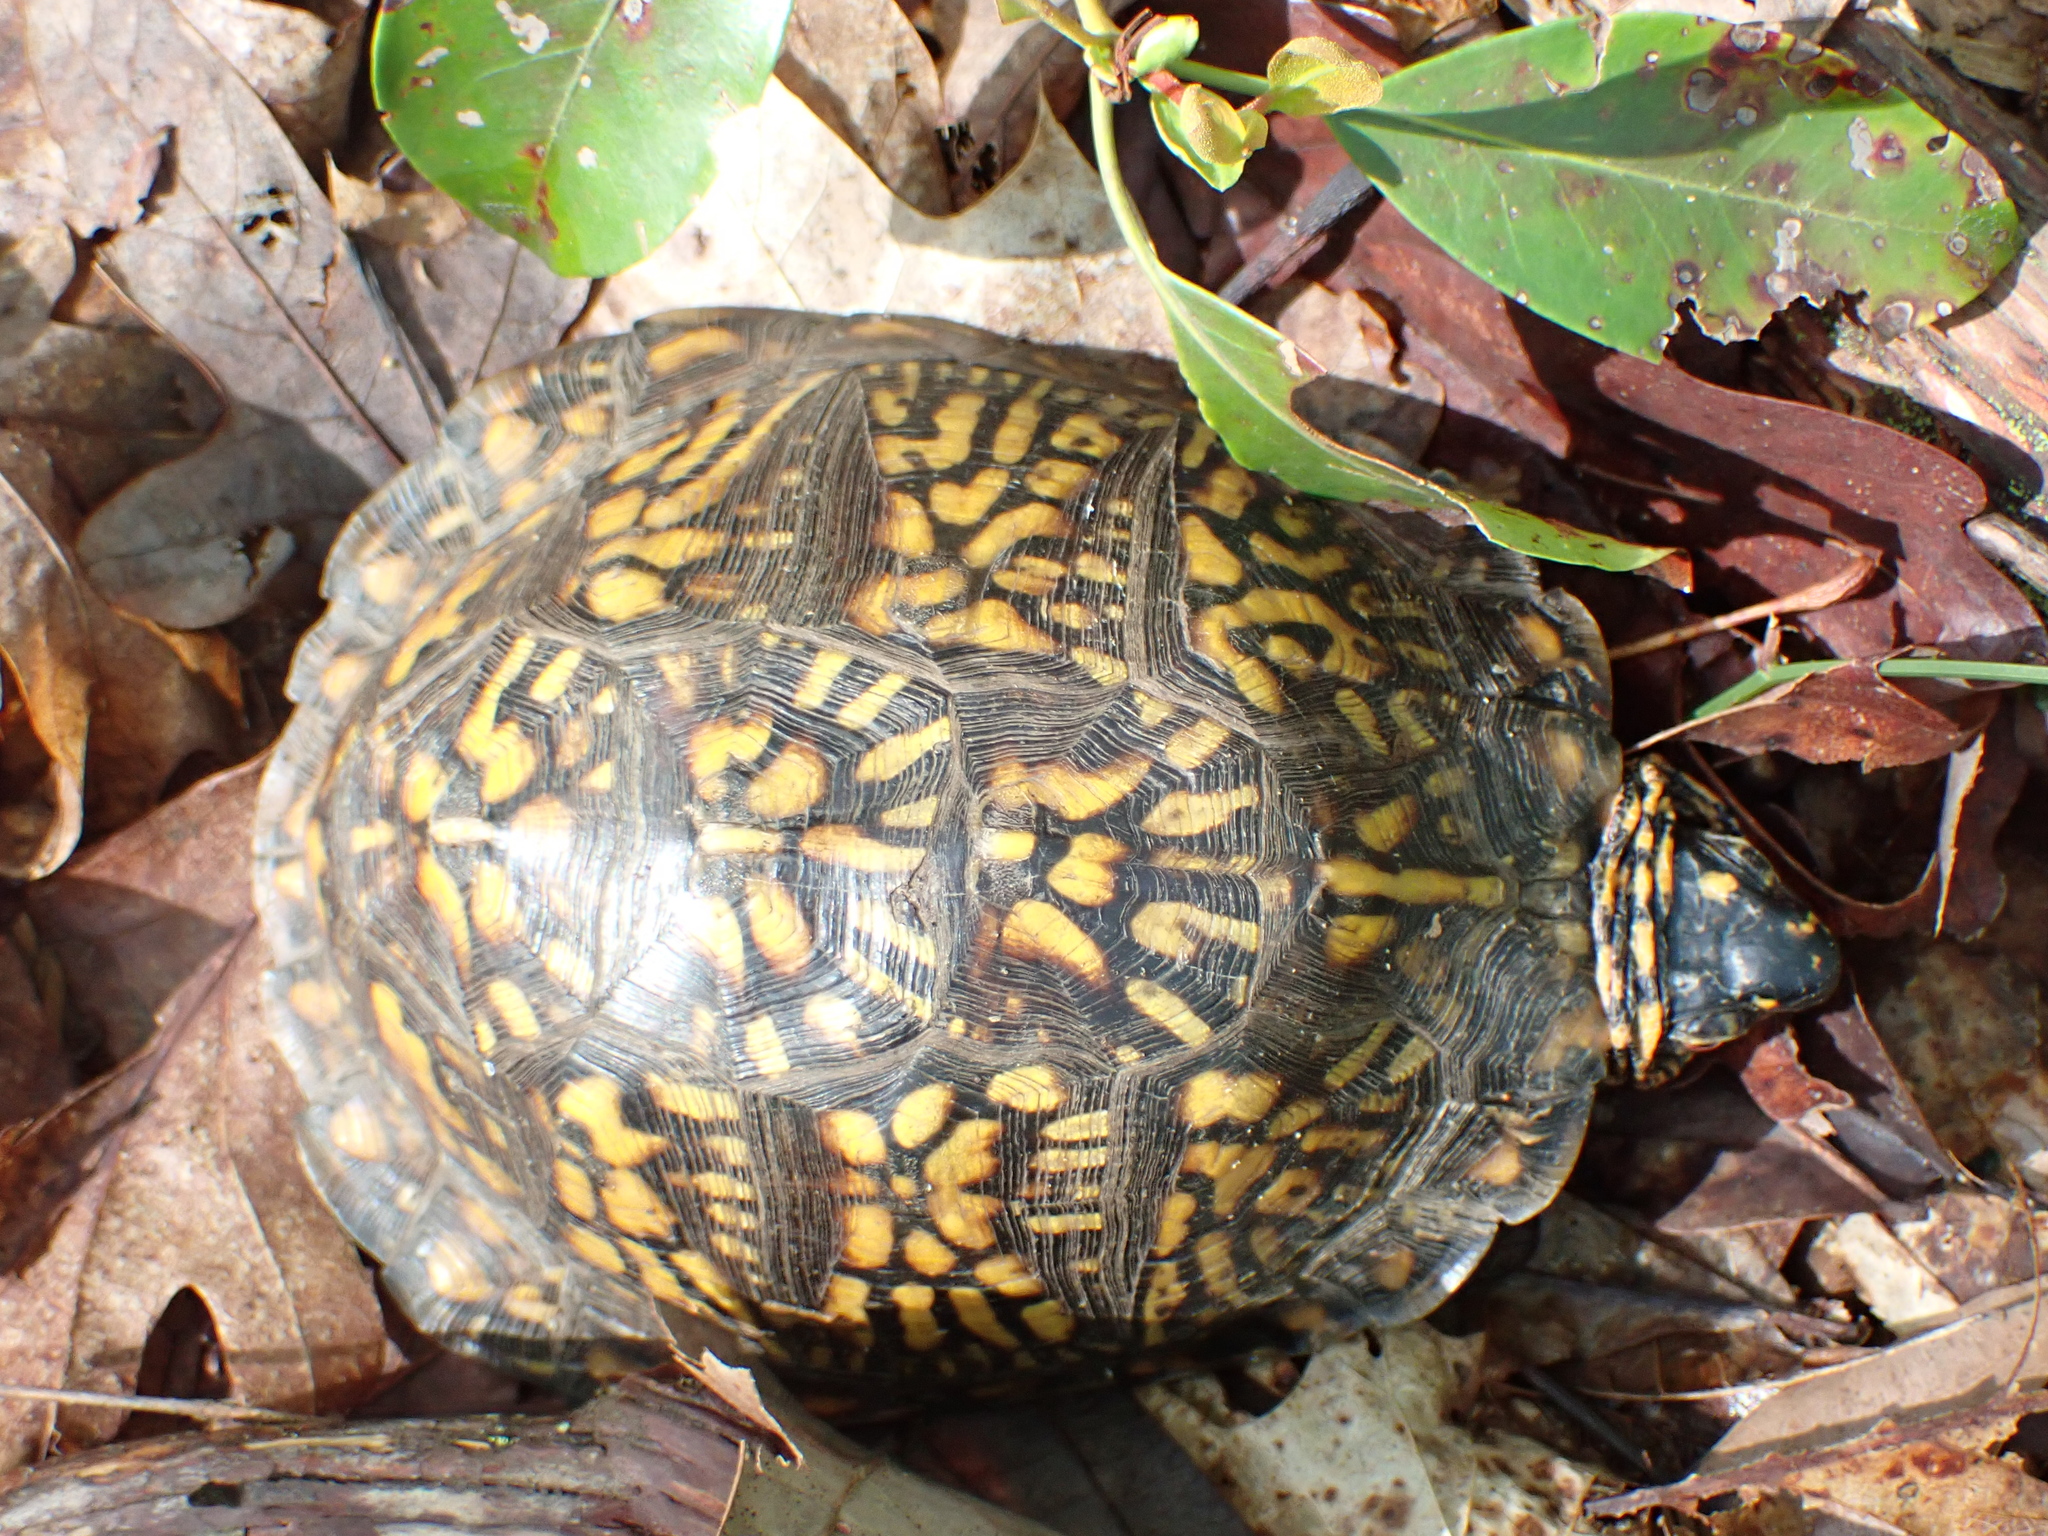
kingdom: Animalia
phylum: Chordata
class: Testudines
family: Emydidae
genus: Terrapene
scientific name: Terrapene carolina
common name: Common box turtle
